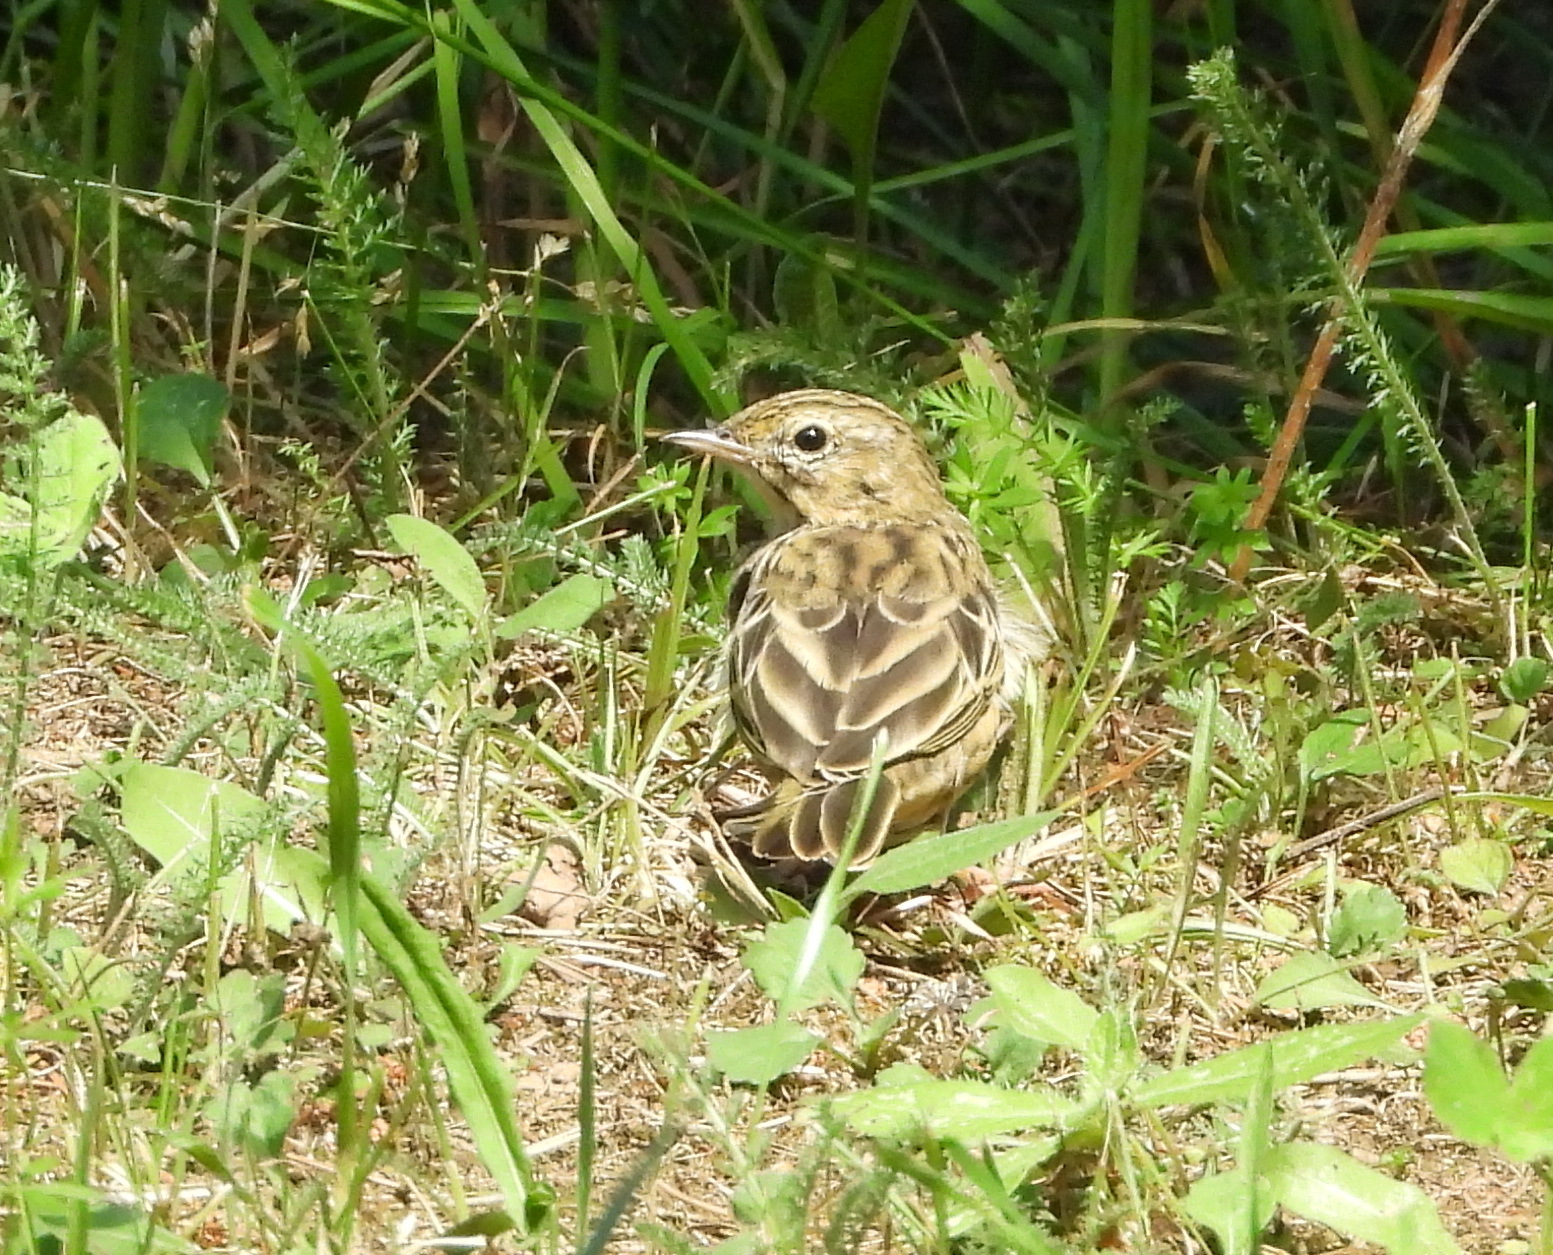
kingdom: Animalia
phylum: Chordata
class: Aves
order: Passeriformes
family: Motacillidae
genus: Anthus
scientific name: Anthus trivialis
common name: Tree pipit
